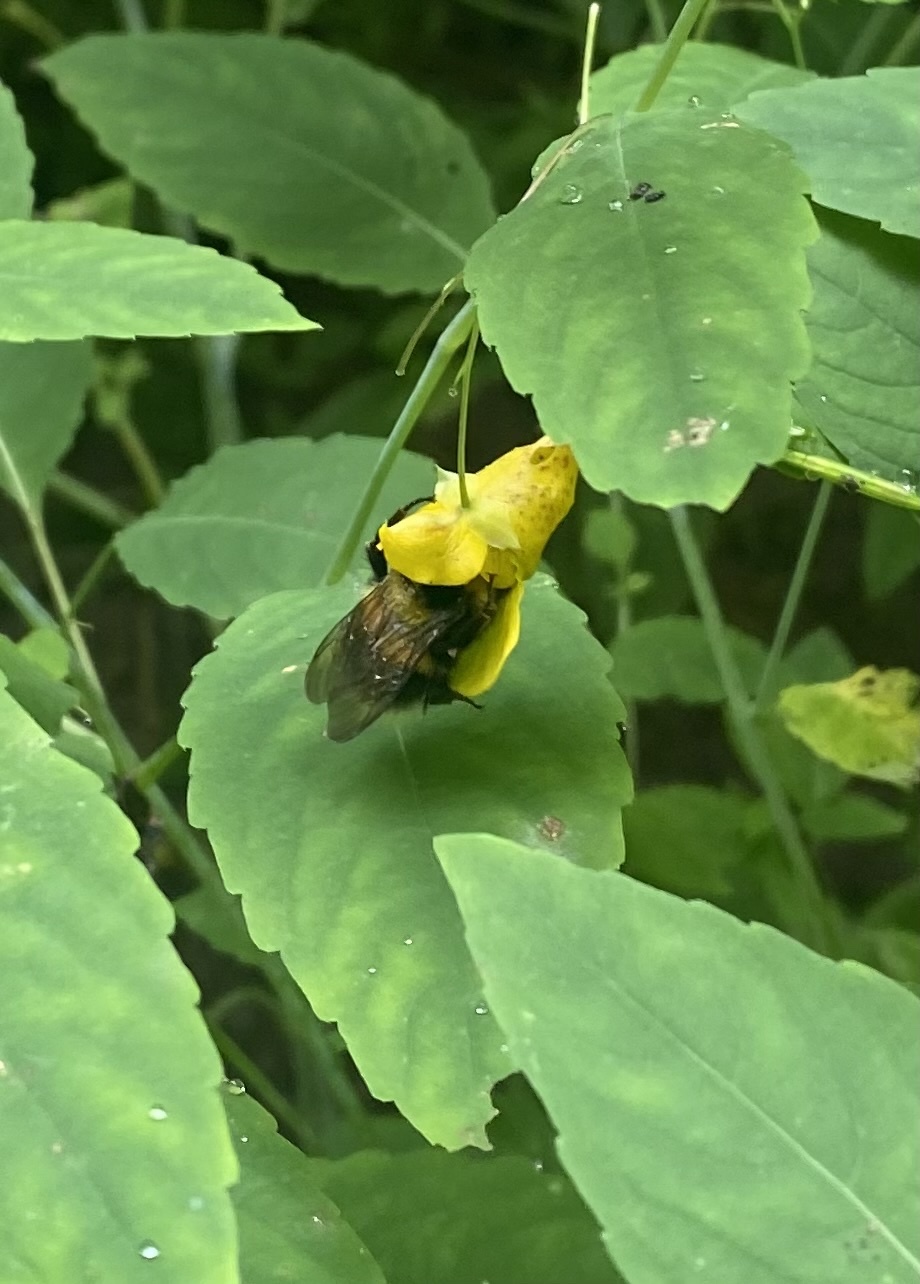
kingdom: Animalia
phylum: Arthropoda
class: Insecta
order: Hymenoptera
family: Apidae
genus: Bombus
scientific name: Bombus hortorum
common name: Garden bumblebee
